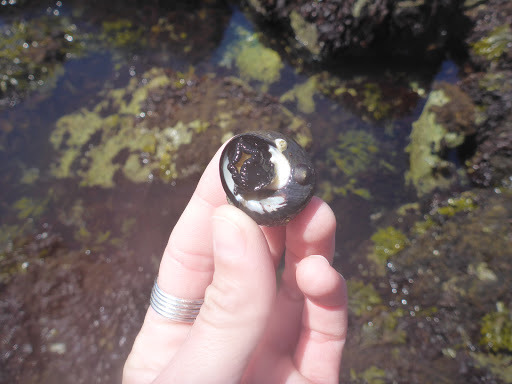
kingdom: Animalia
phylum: Mollusca
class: Gastropoda
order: Trochida
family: Tegulidae
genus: Tegula
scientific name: Tegula funebralis
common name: Black tegula
